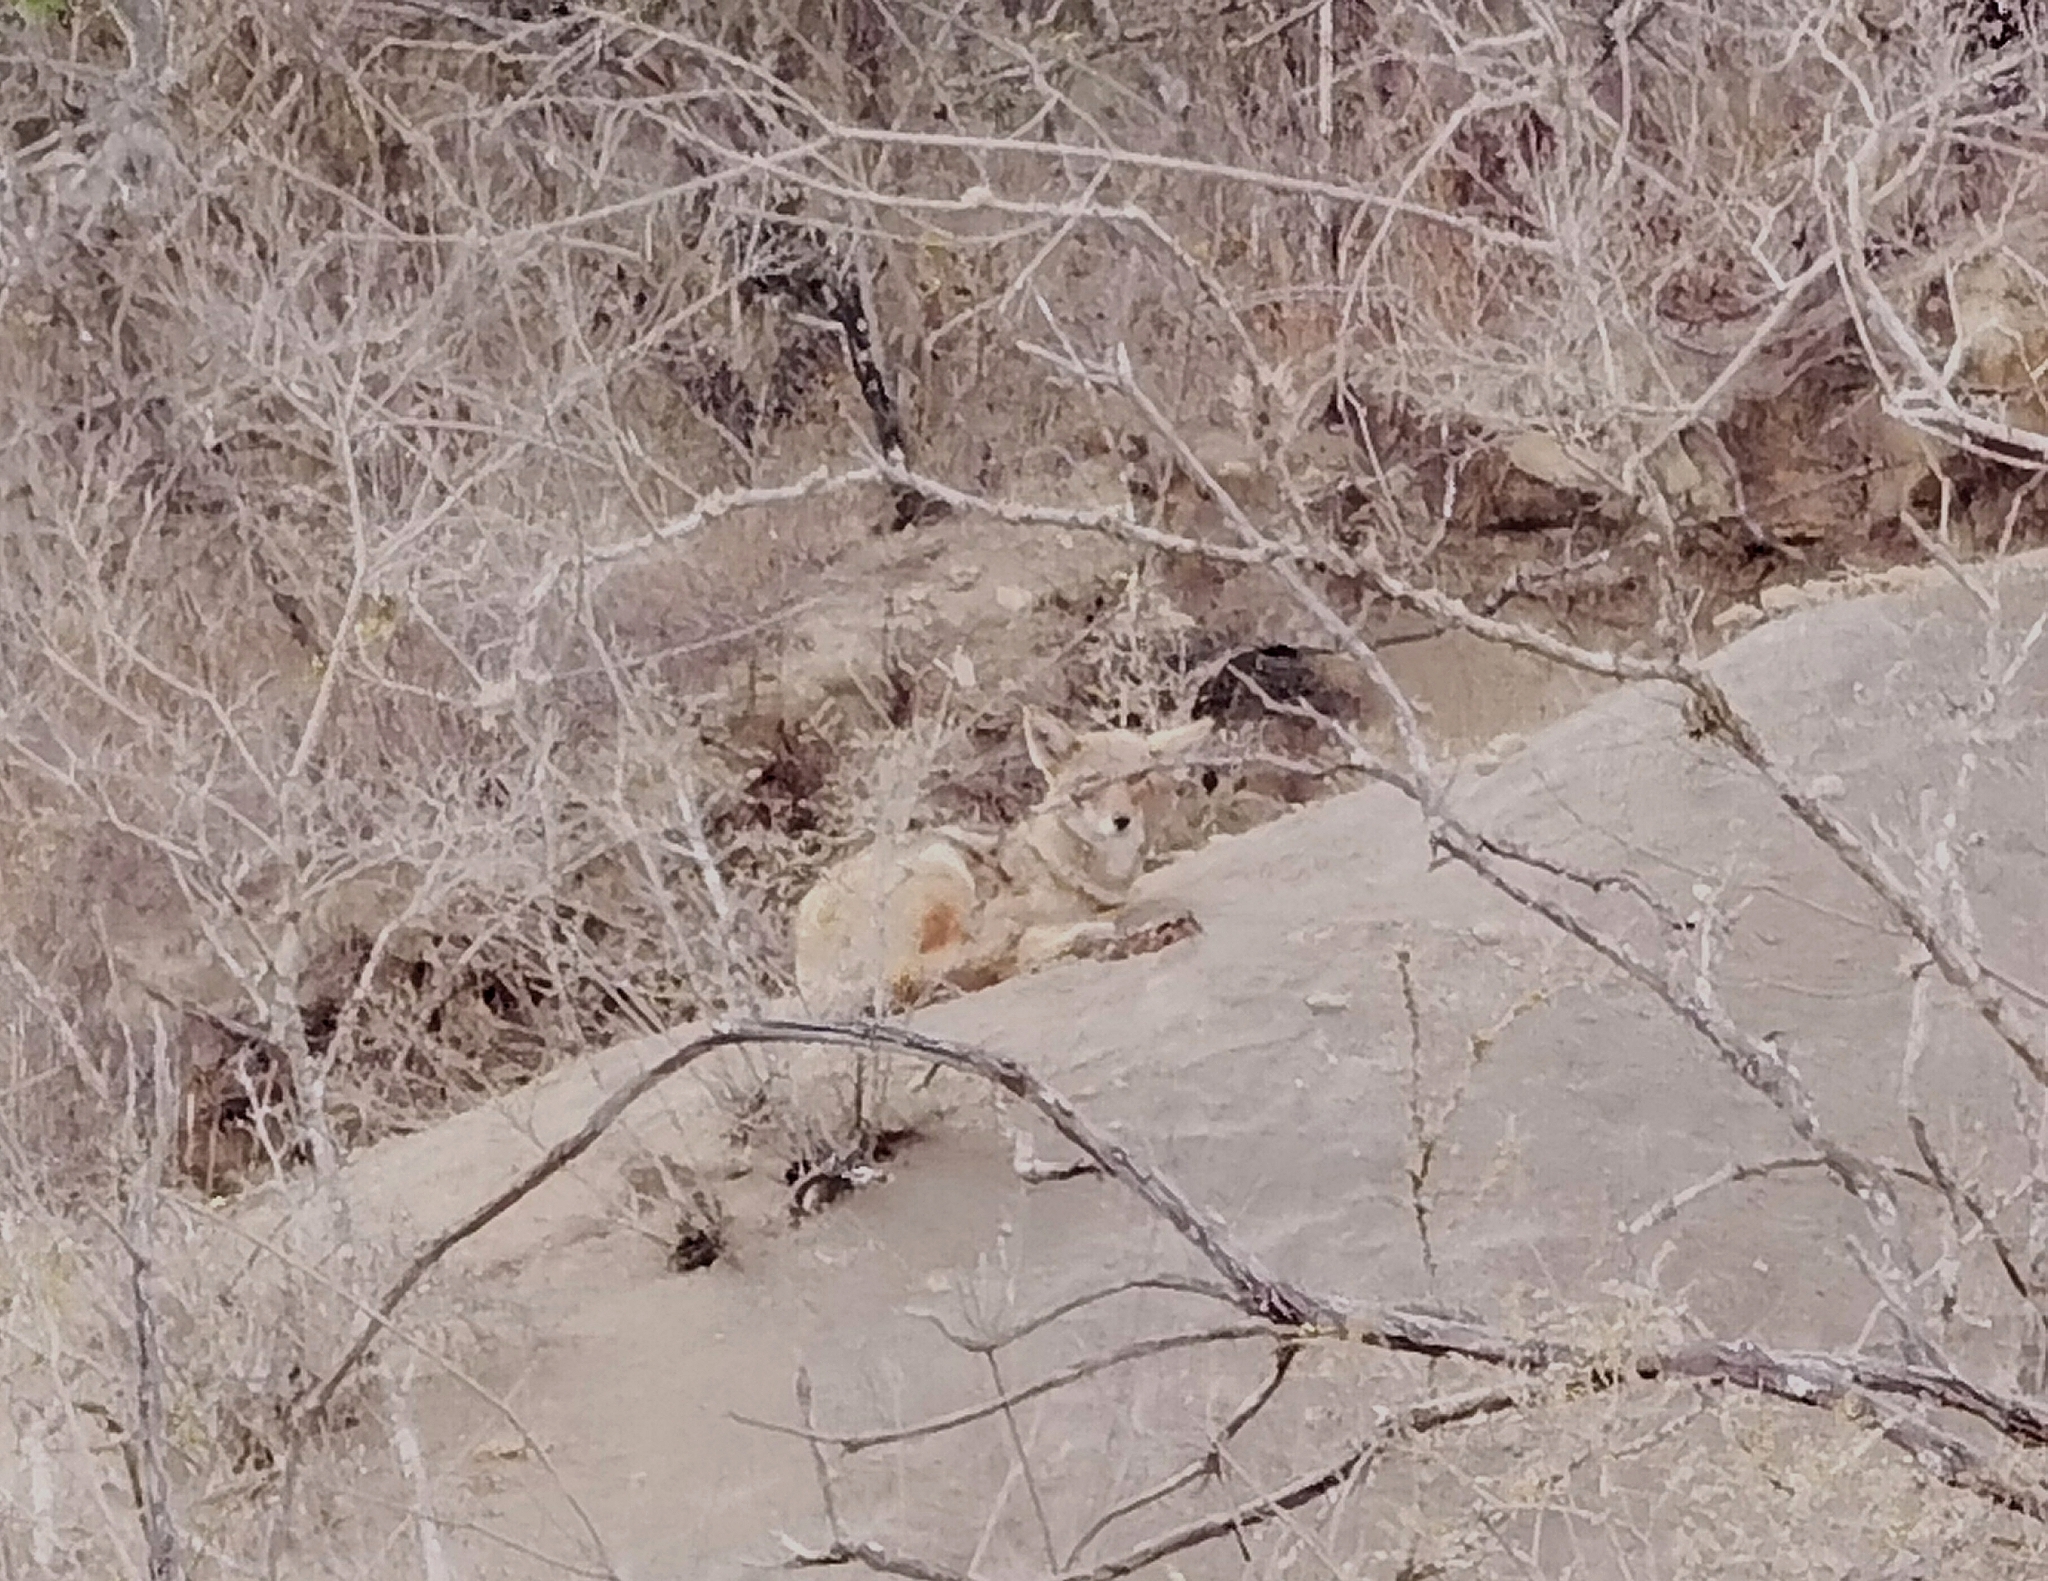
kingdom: Animalia
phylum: Chordata
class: Mammalia
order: Carnivora
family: Canidae
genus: Canis
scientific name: Canis latrans
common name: Coyote
